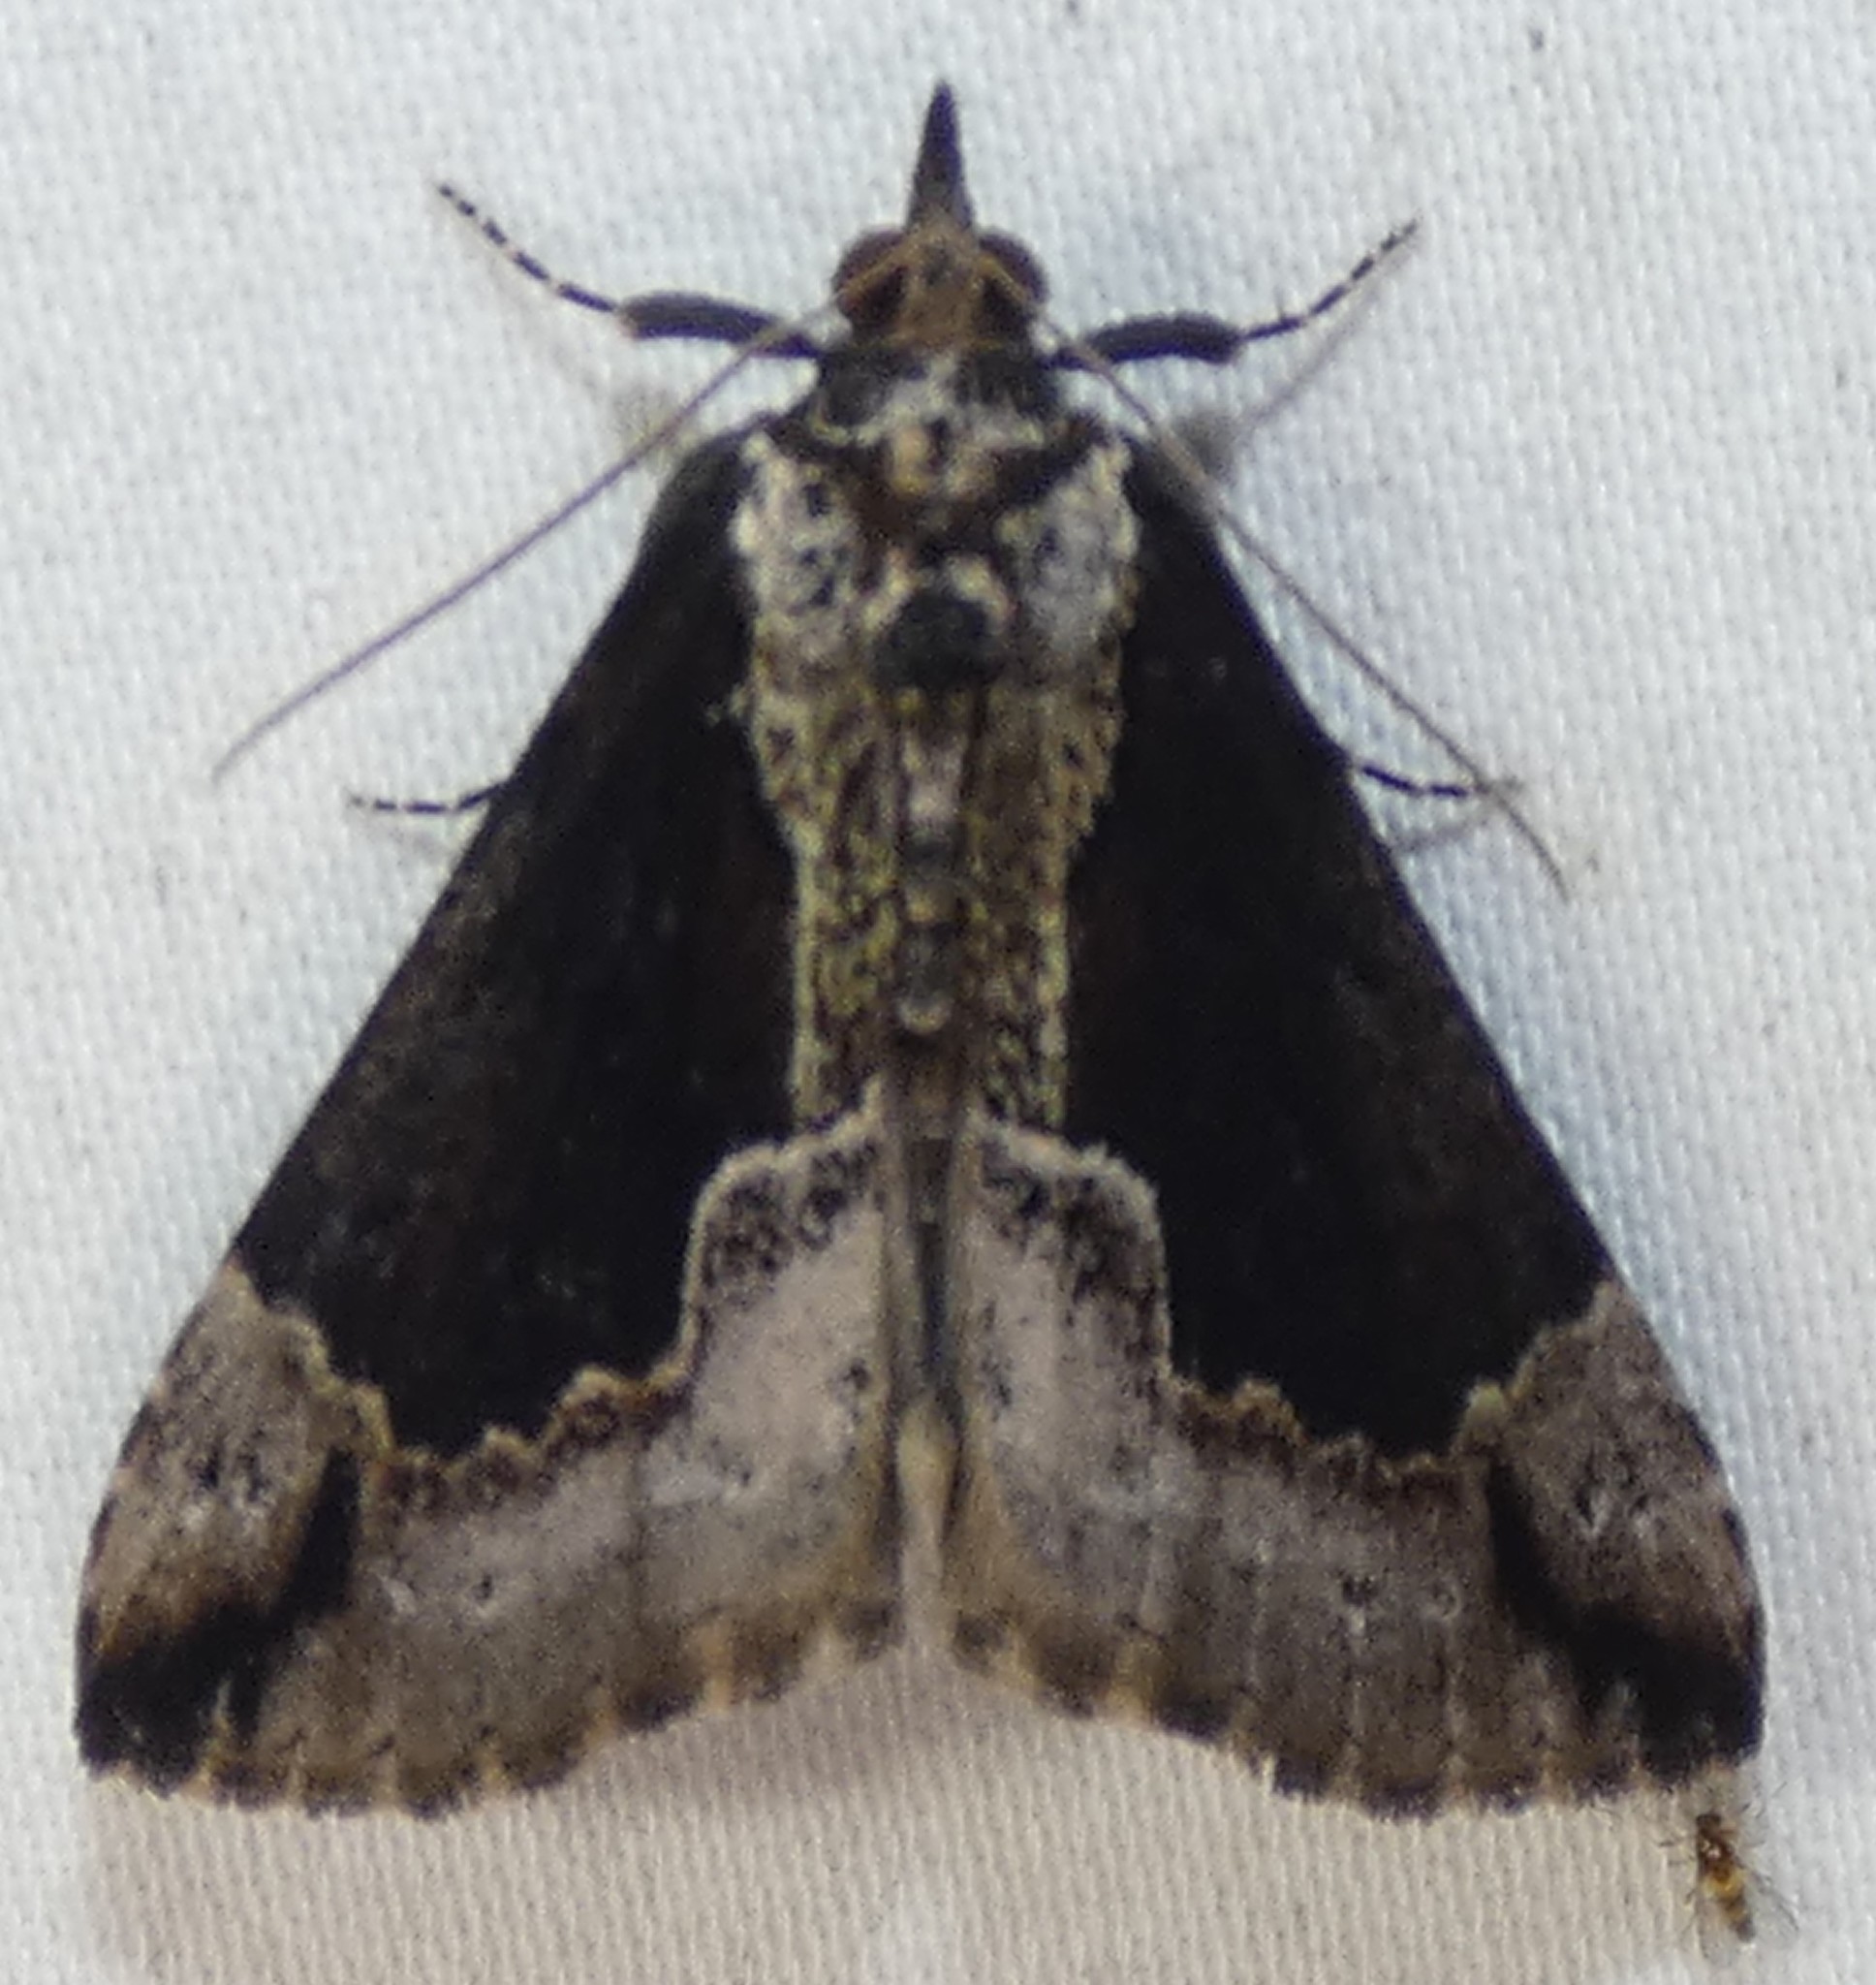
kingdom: Animalia
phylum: Arthropoda
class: Insecta
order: Lepidoptera
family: Erebidae
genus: Hypena
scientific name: Hypena baltimoralis
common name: Baltimore snout
